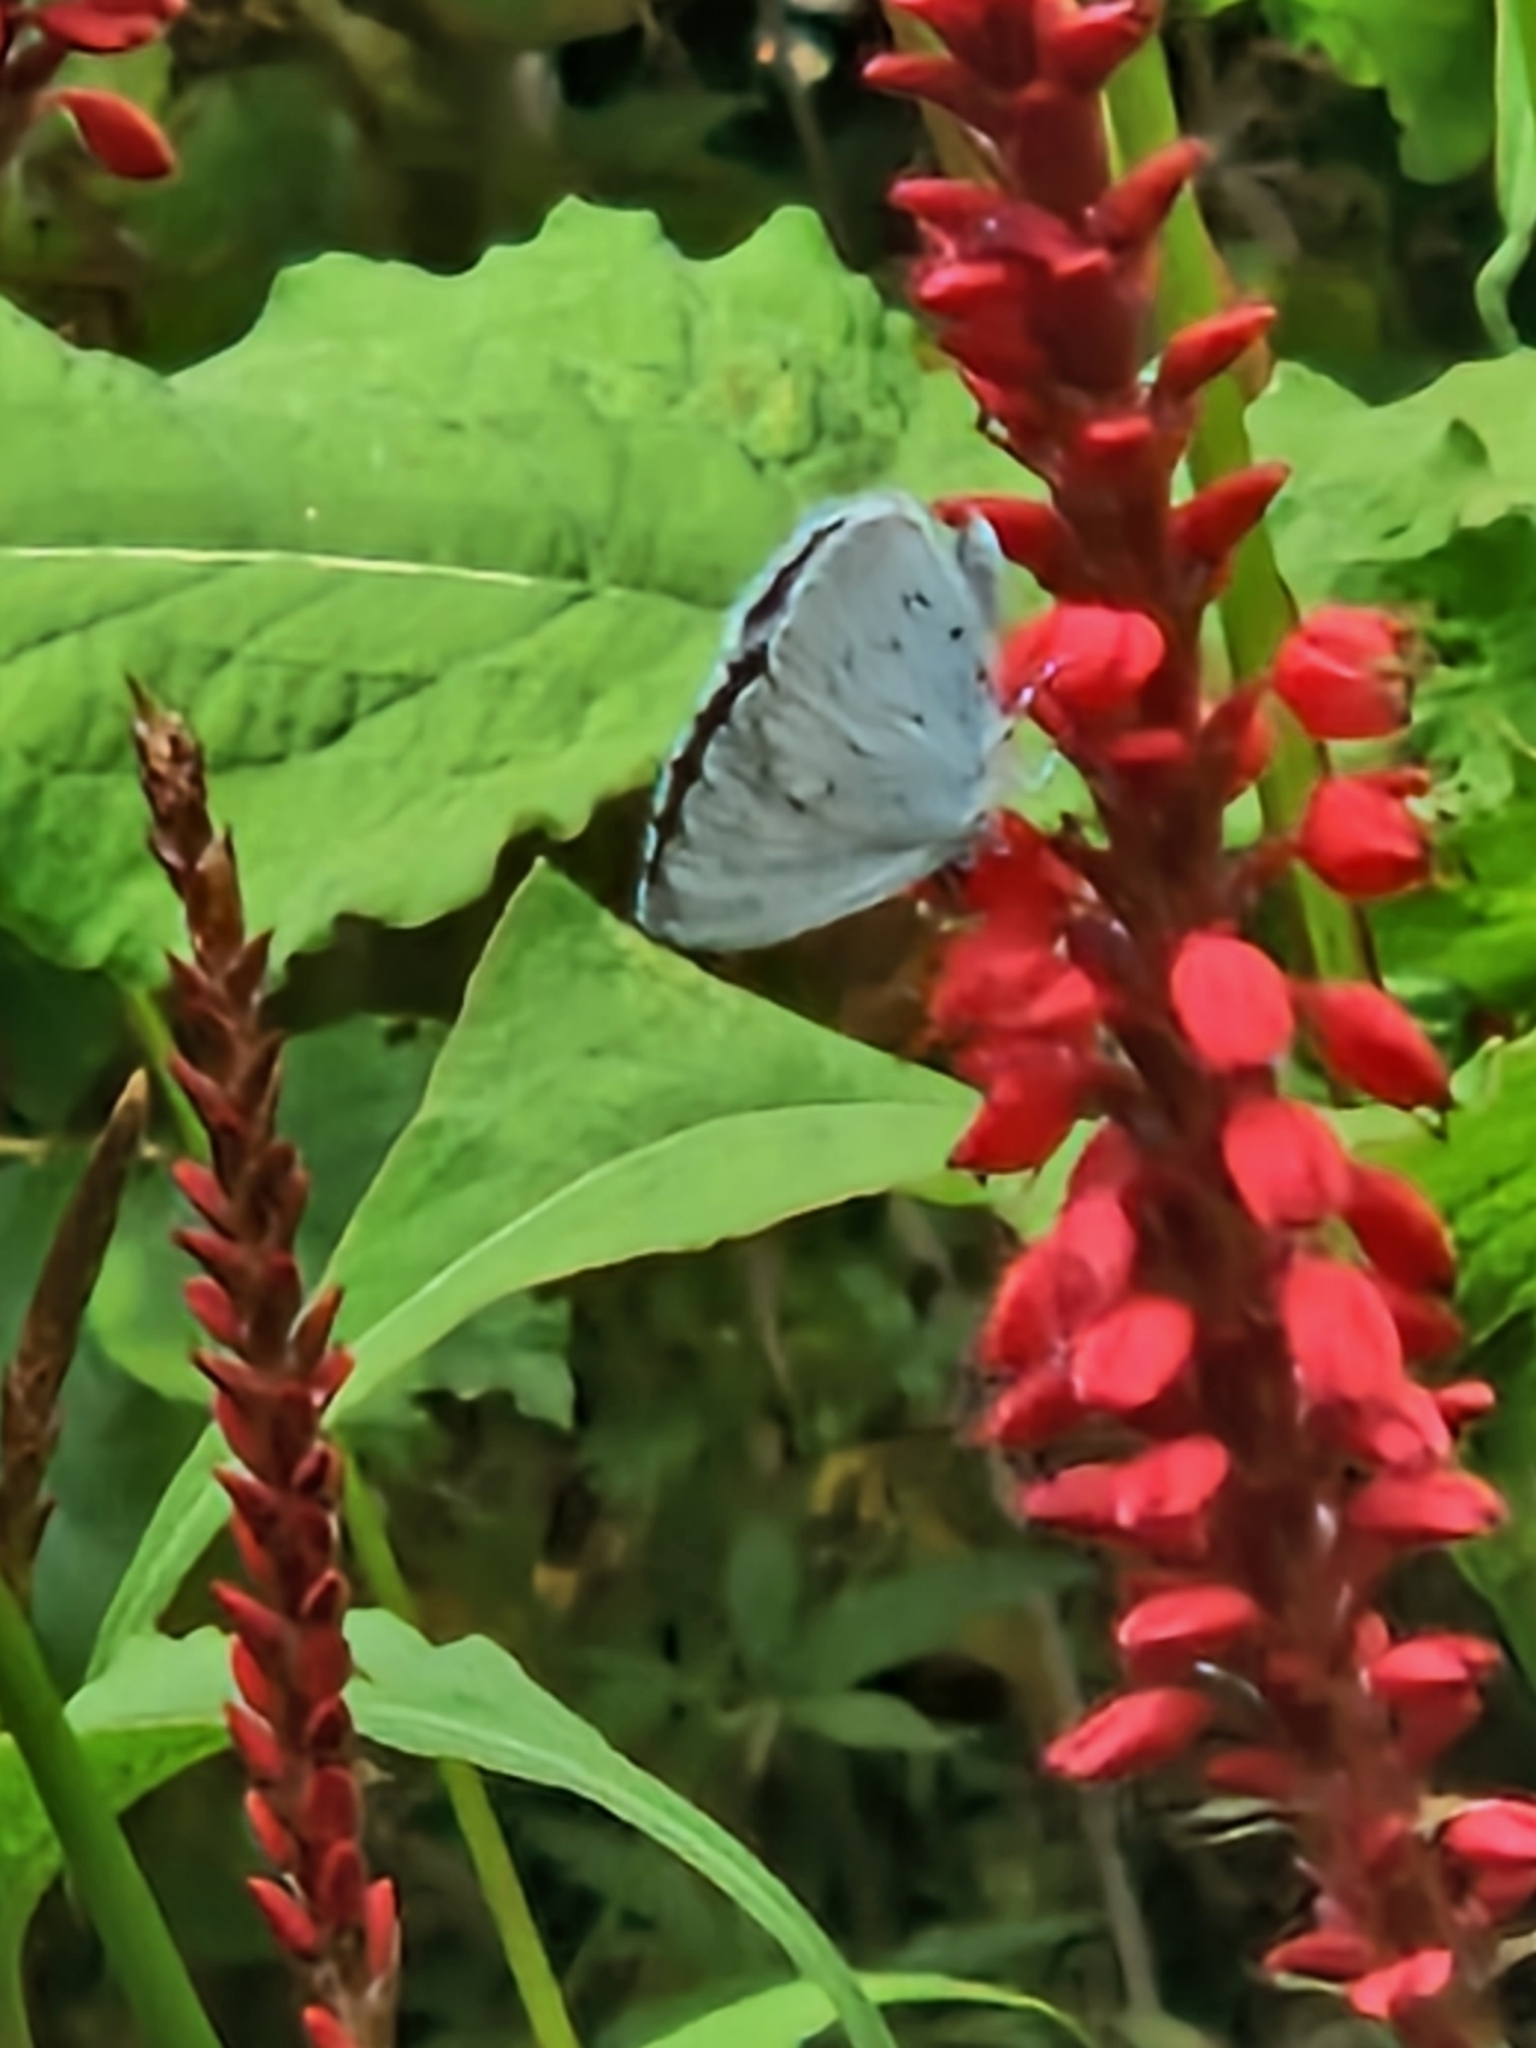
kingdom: Animalia
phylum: Arthropoda
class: Insecta
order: Lepidoptera
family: Lycaenidae
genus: Celastrina
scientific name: Celastrina argiolus
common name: Holly blue
